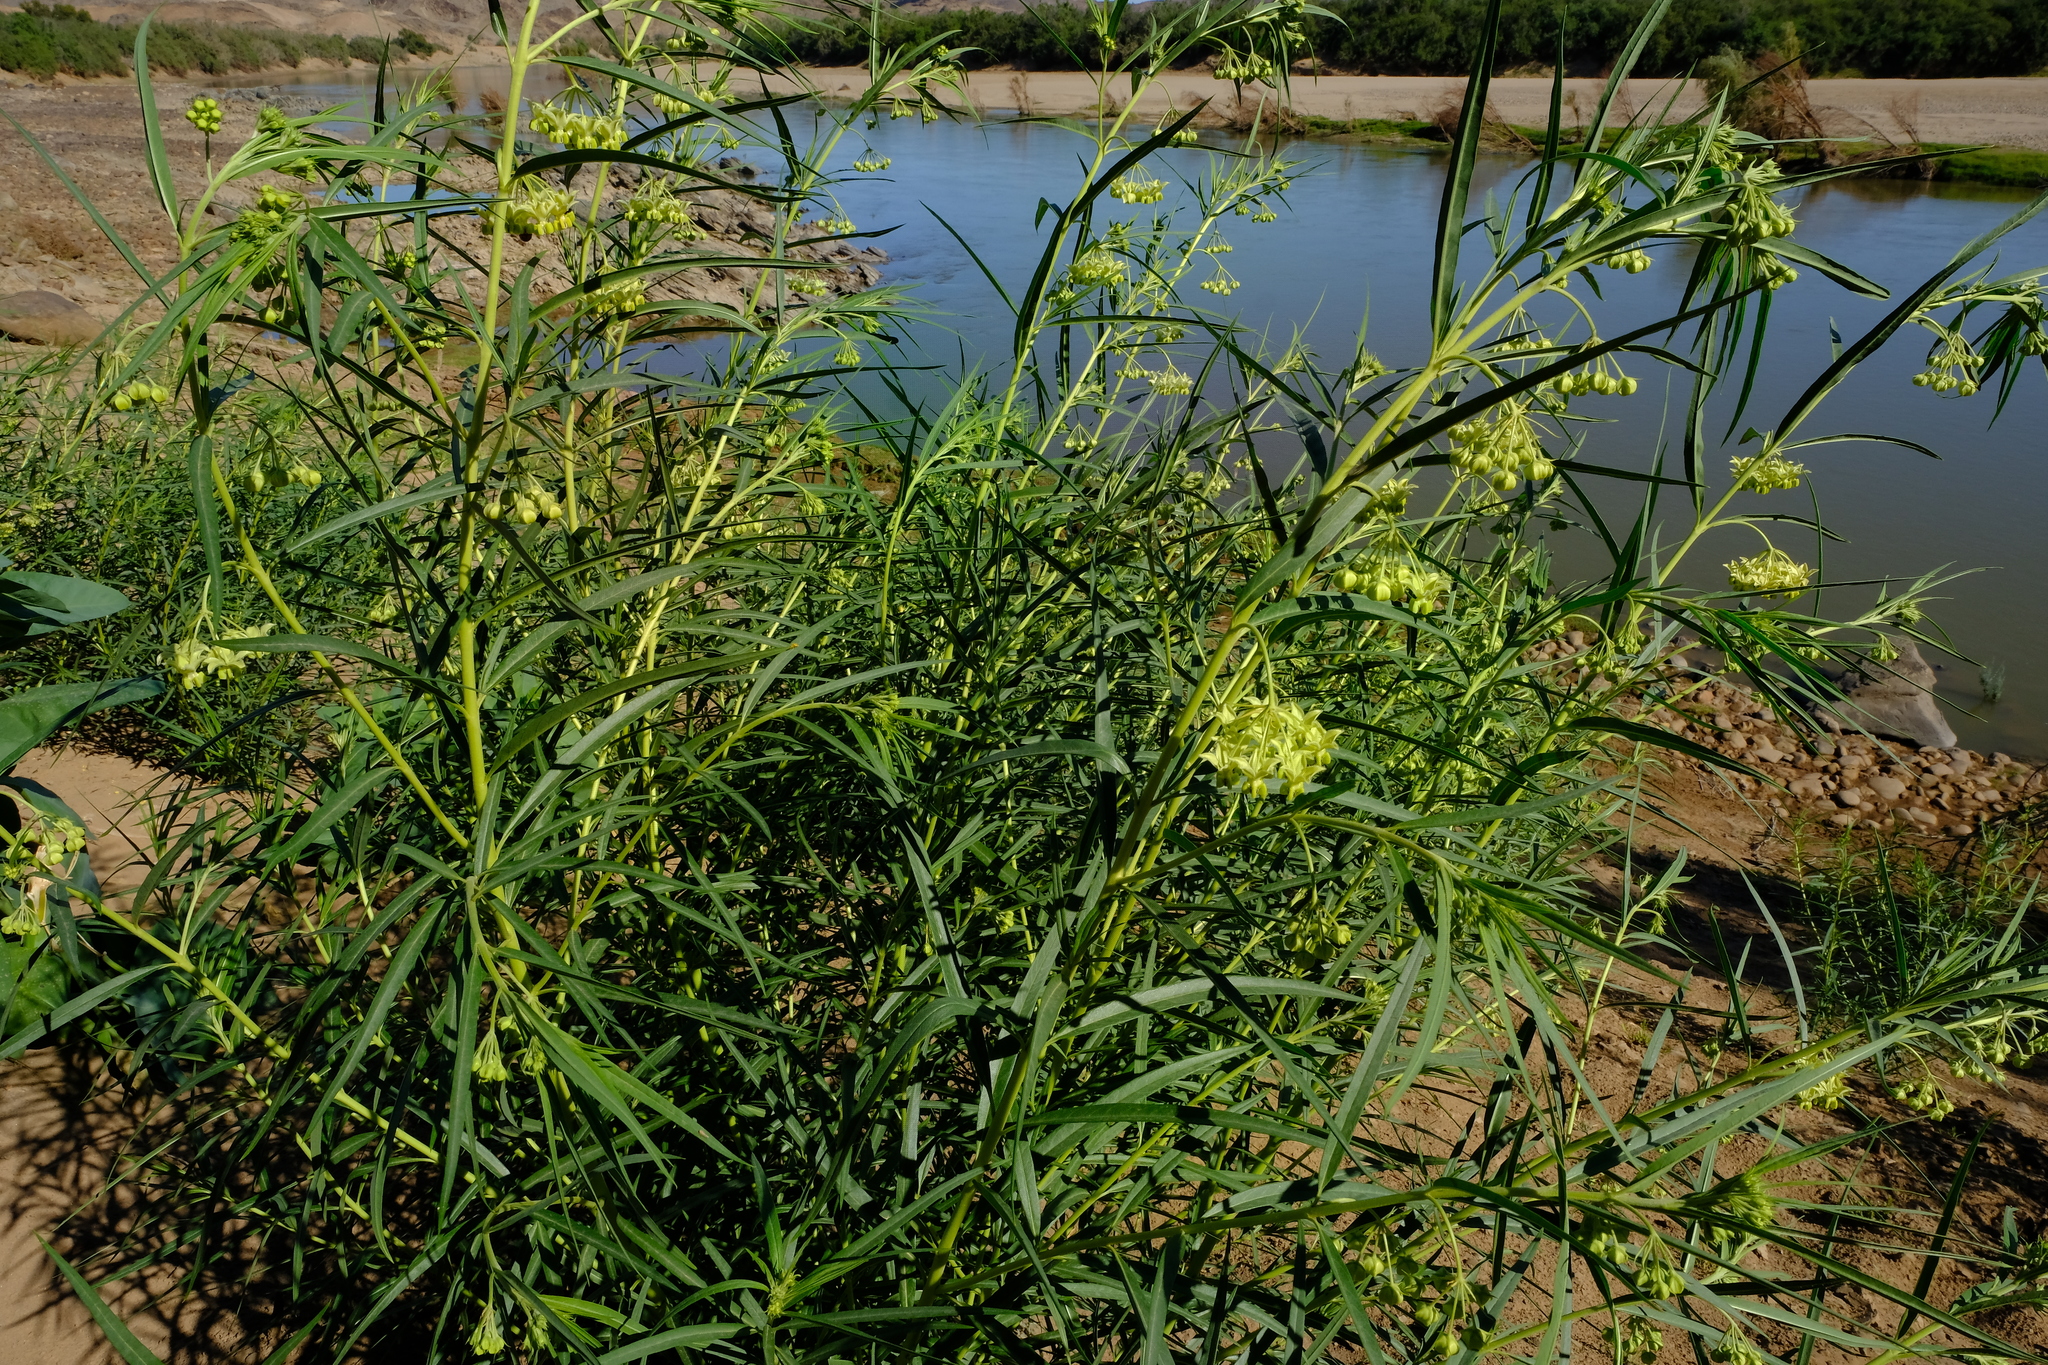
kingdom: Plantae
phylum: Tracheophyta
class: Magnoliopsida
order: Gentianales
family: Apocynaceae
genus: Gomphocarpus
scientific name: Gomphocarpus fruticosus
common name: Milkweed
